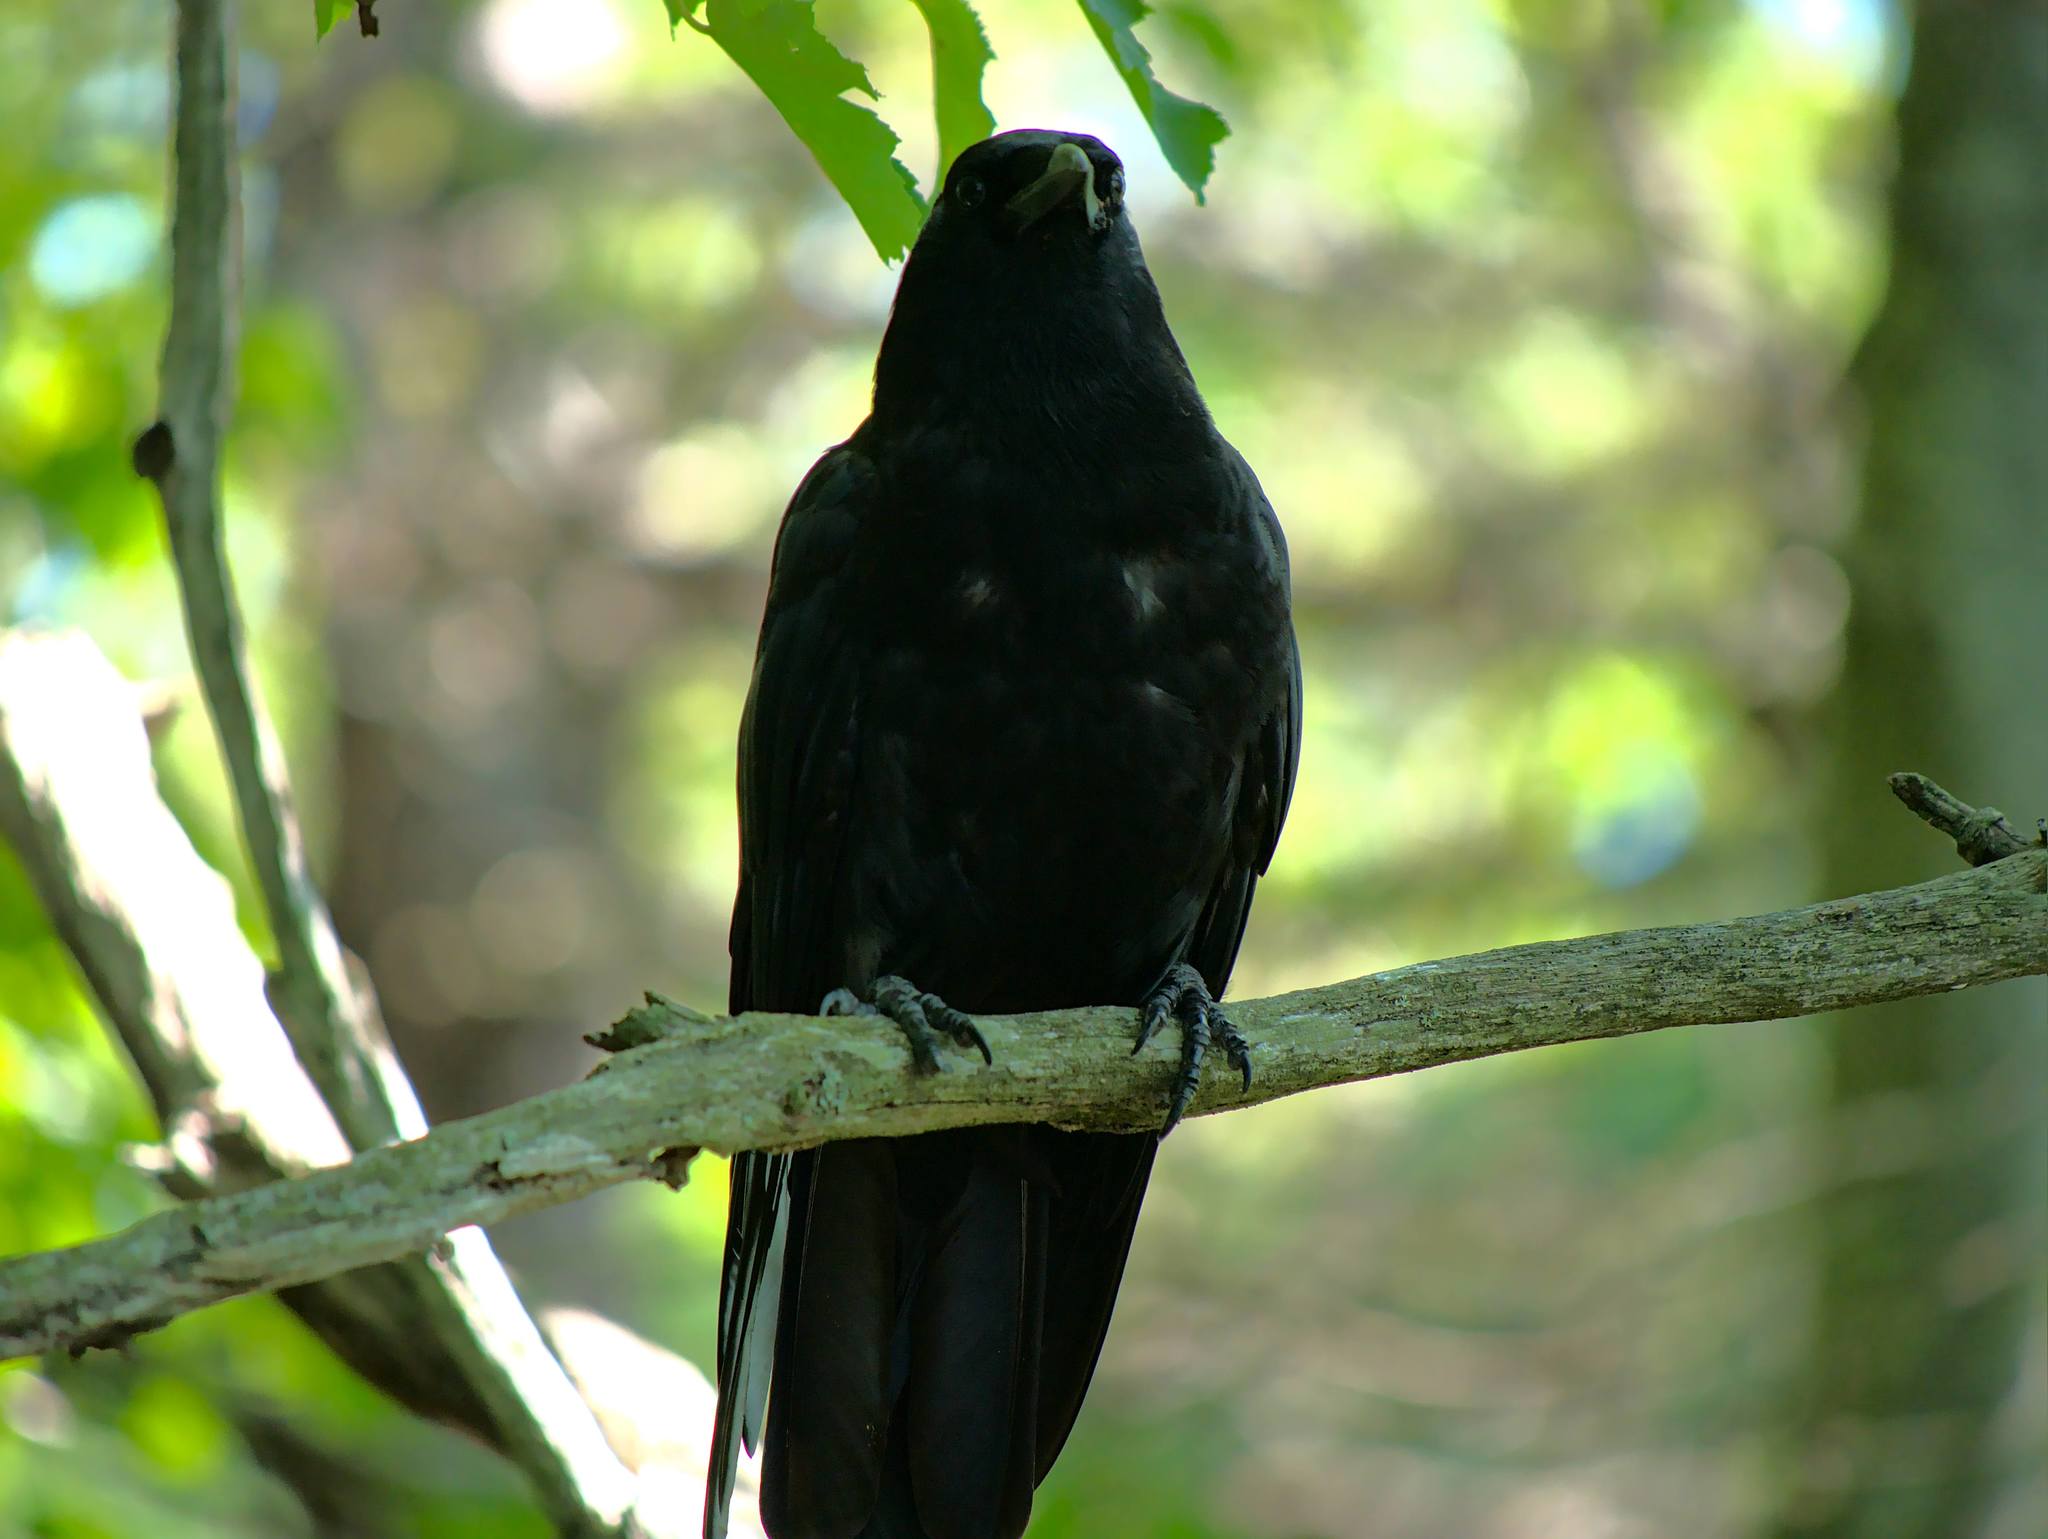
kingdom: Animalia
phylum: Chordata
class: Aves
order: Passeriformes
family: Corvidae
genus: Corvus
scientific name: Corvus brachyrhynchos
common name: American crow
